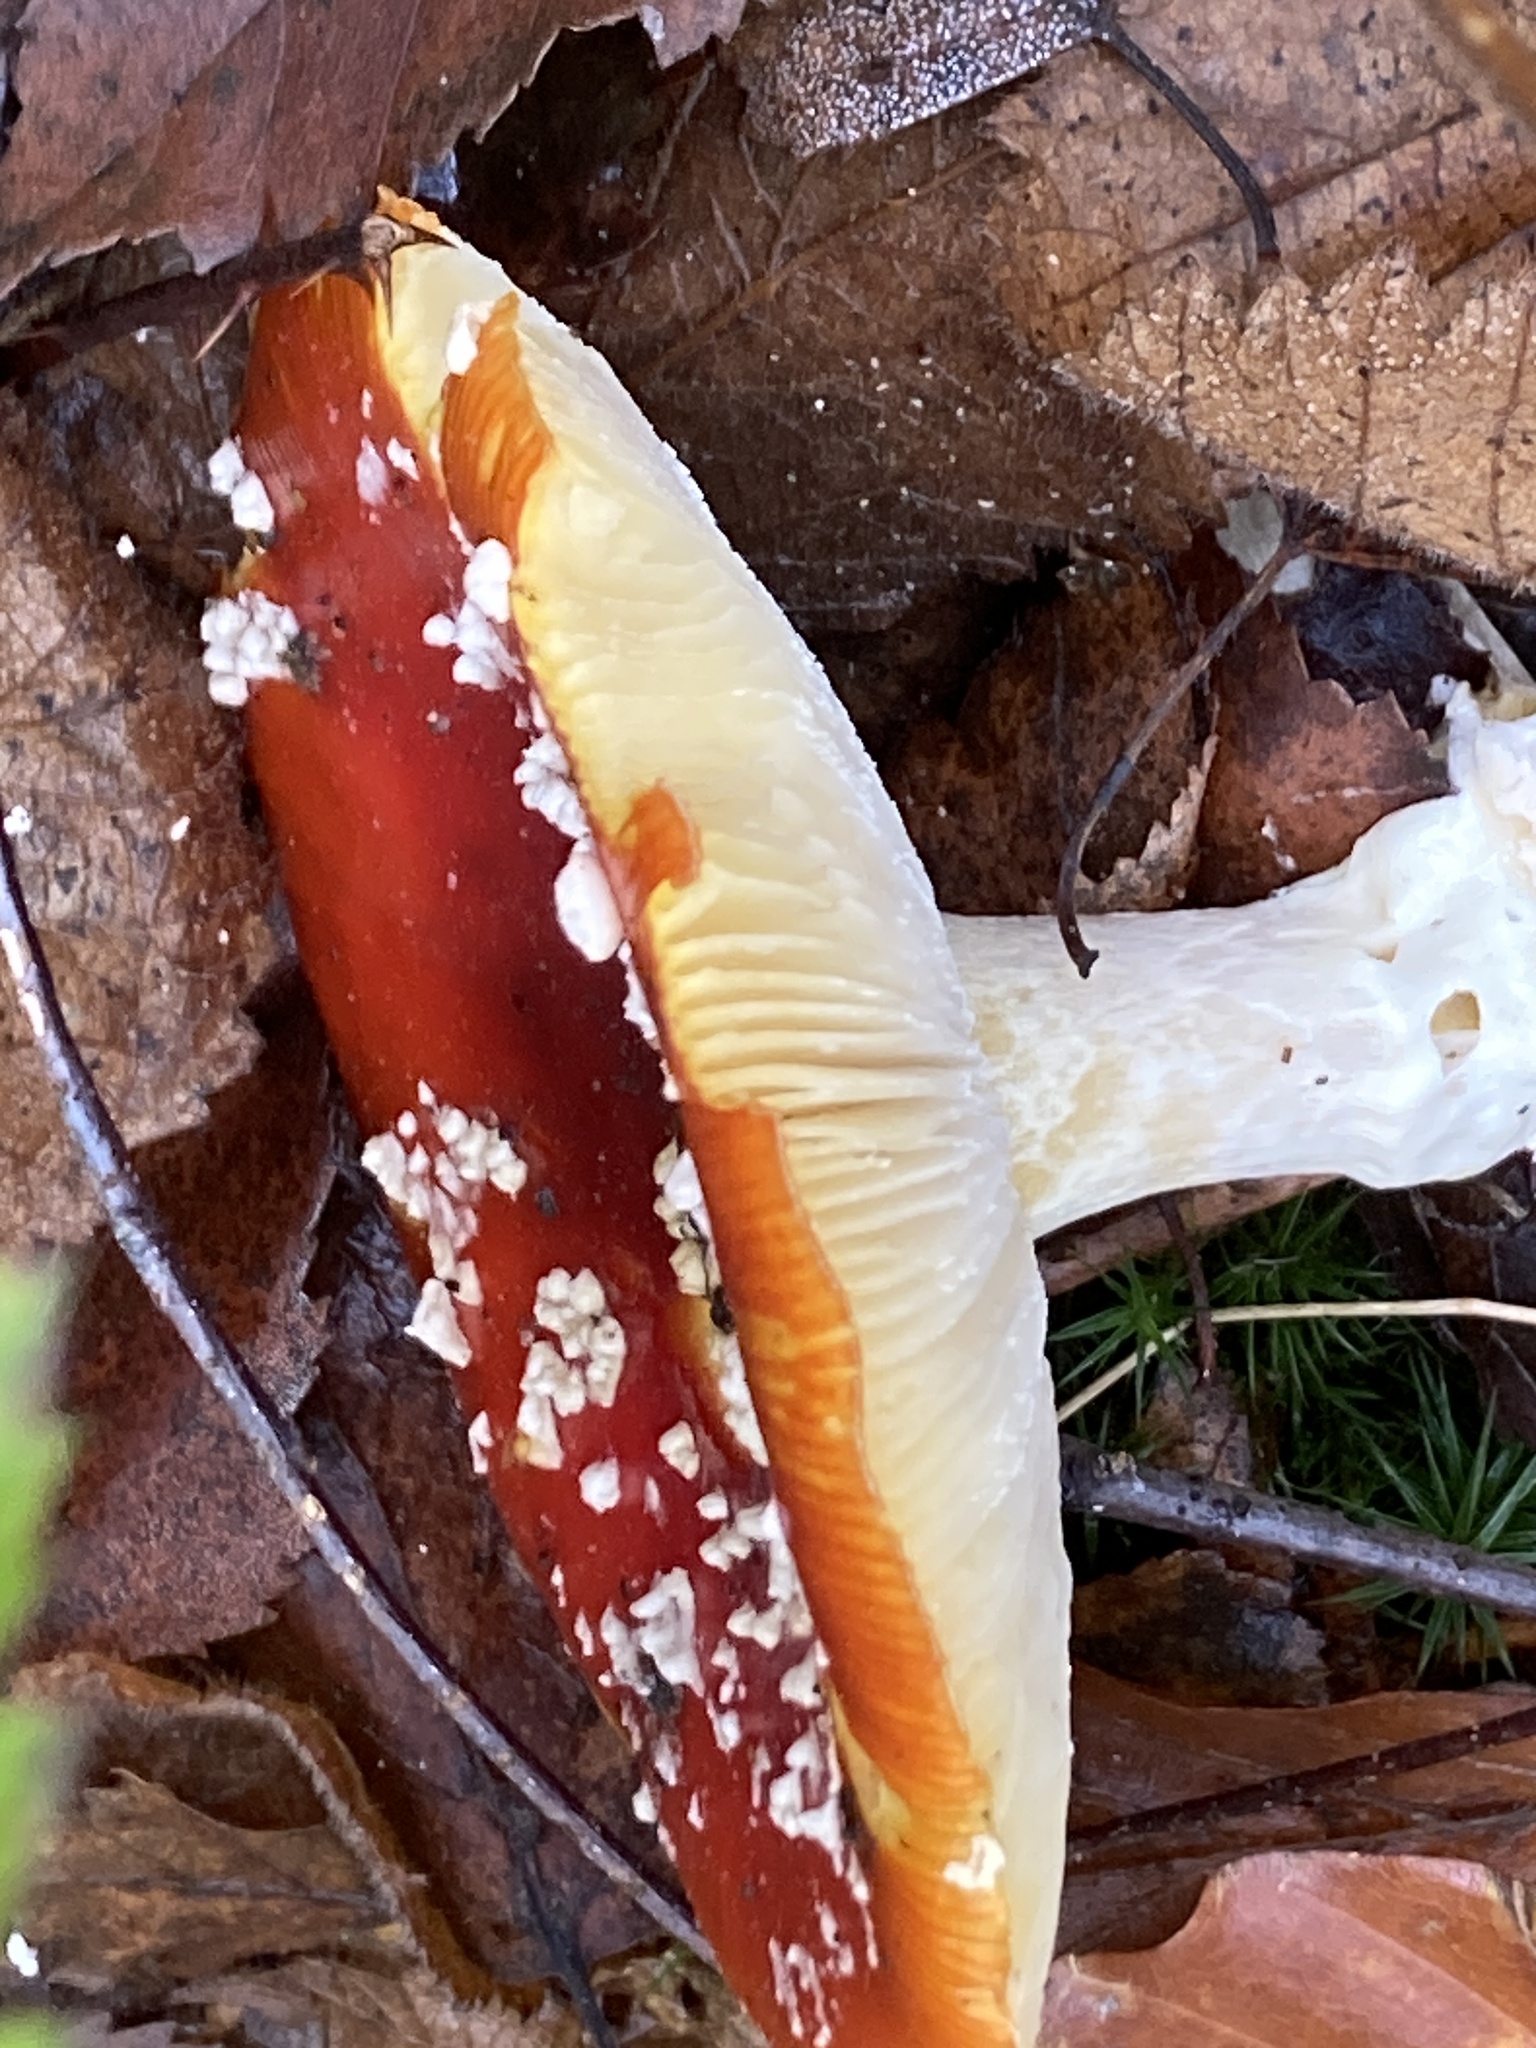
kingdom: Fungi
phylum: Basidiomycota
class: Agaricomycetes
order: Agaricales
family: Amanitaceae
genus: Amanita
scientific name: Amanita muscaria
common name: Fly agaric
